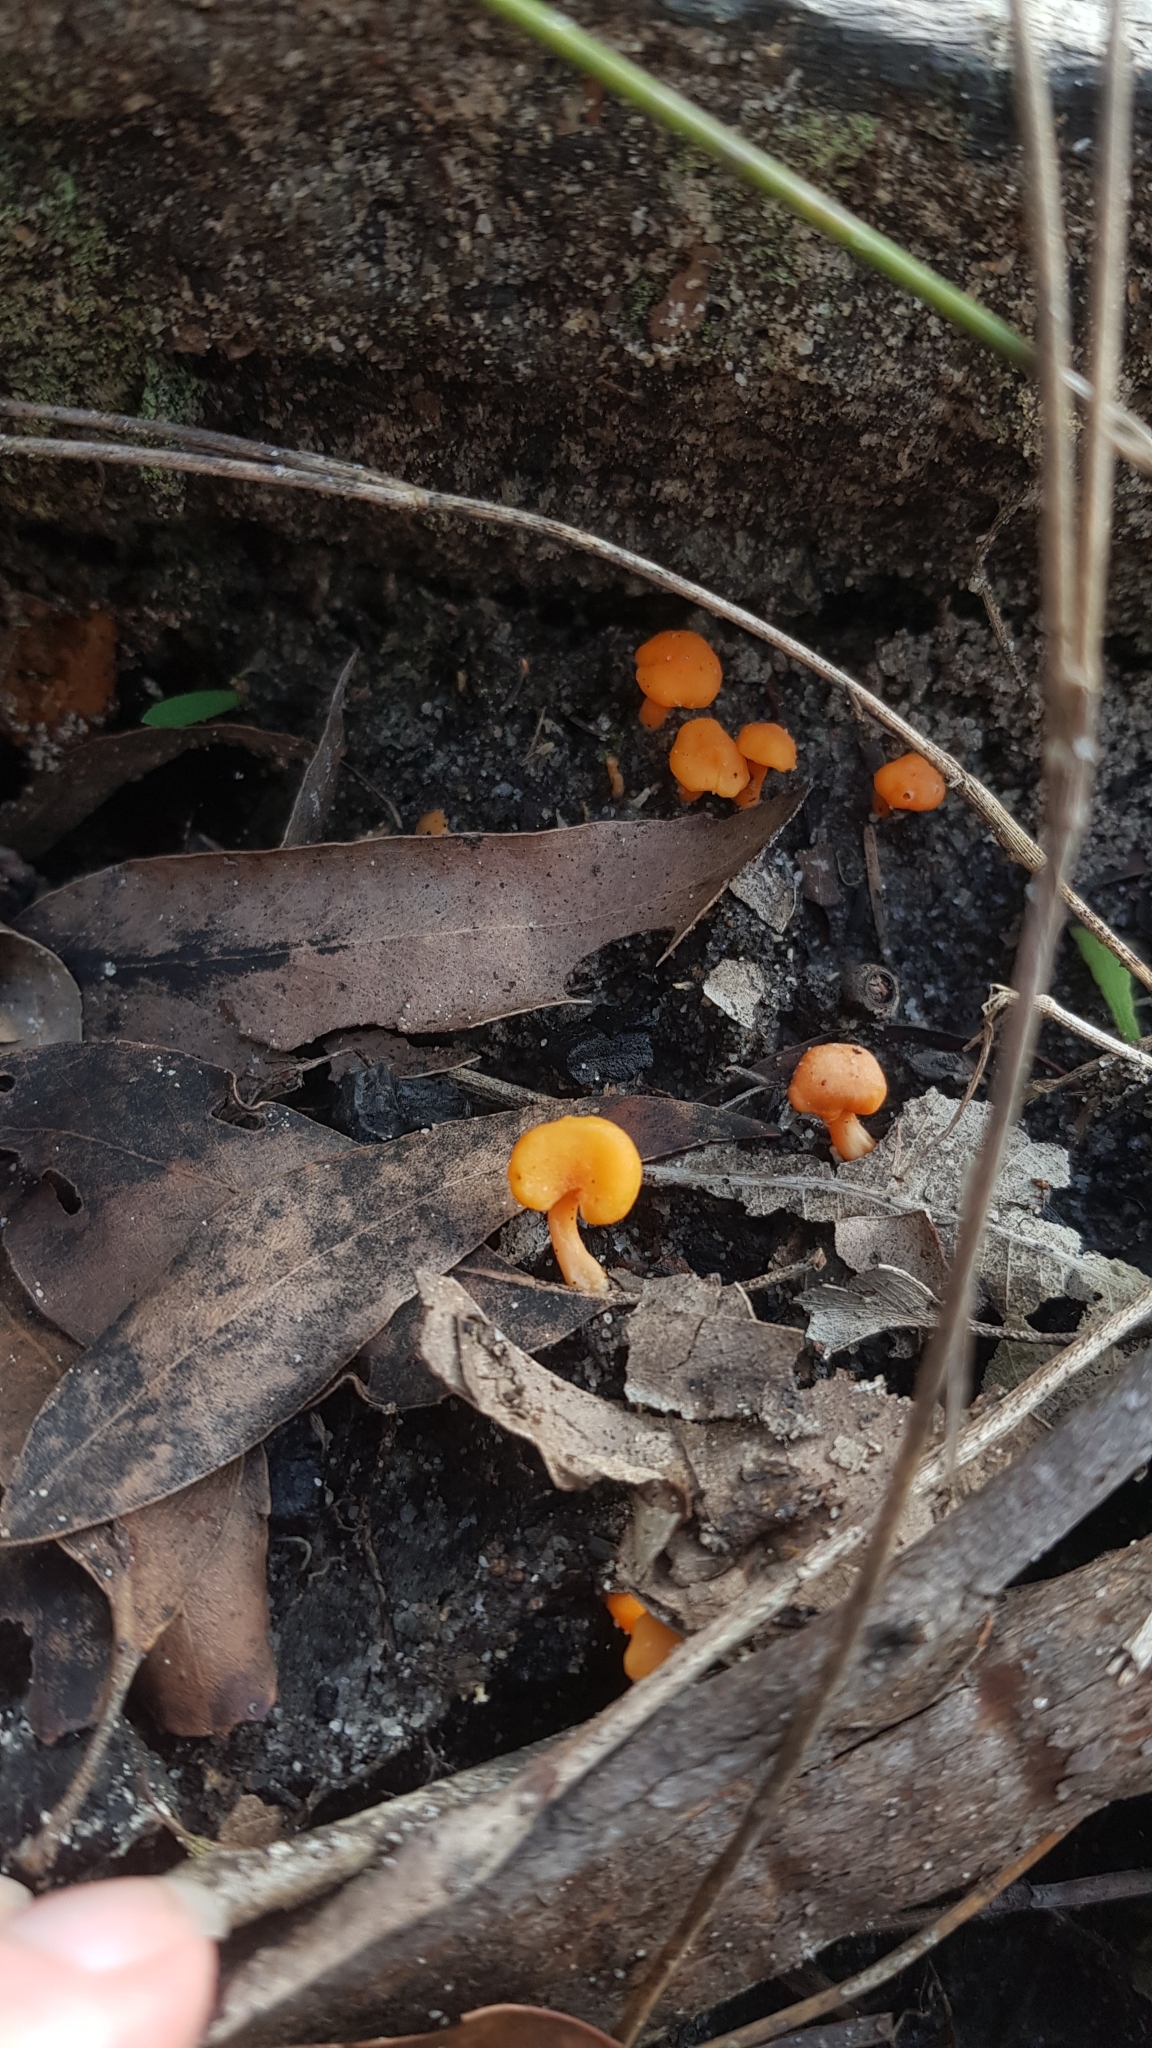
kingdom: Fungi
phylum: Basidiomycota
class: Agaricomycetes
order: Cantharellales
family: Hydnaceae
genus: Cantharellus
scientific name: Cantharellus
